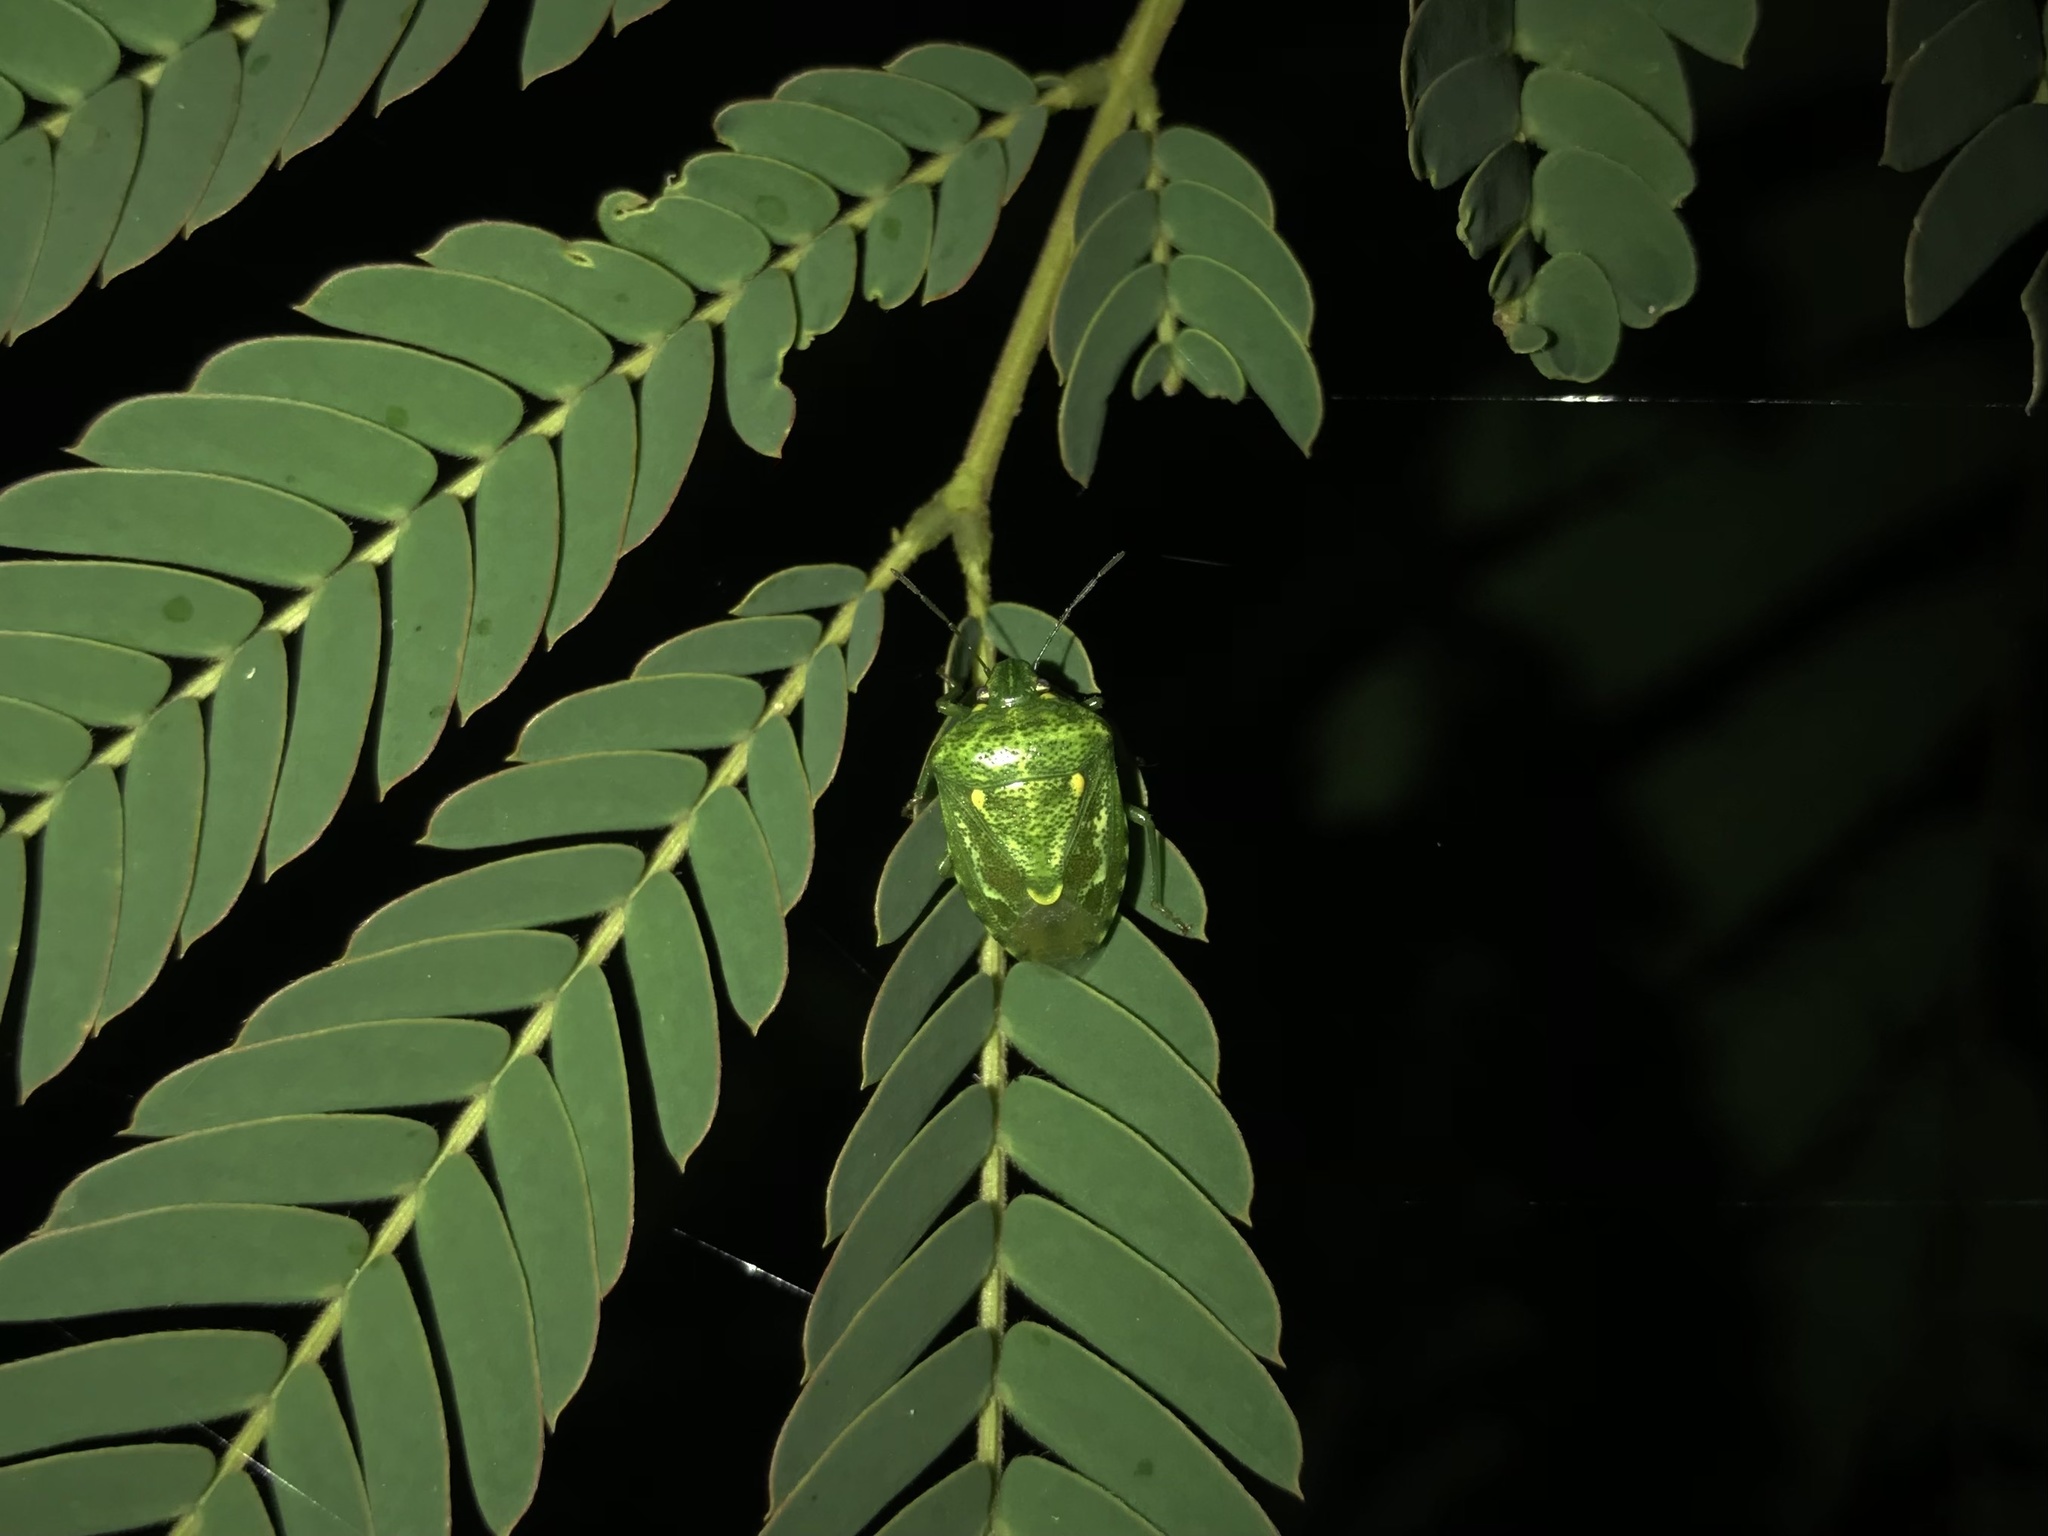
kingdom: Animalia
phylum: Arthropoda
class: Insecta
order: Hemiptera
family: Pentatomidae
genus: Banasa
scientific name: Banasa euchlora
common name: Cedar berry bug
